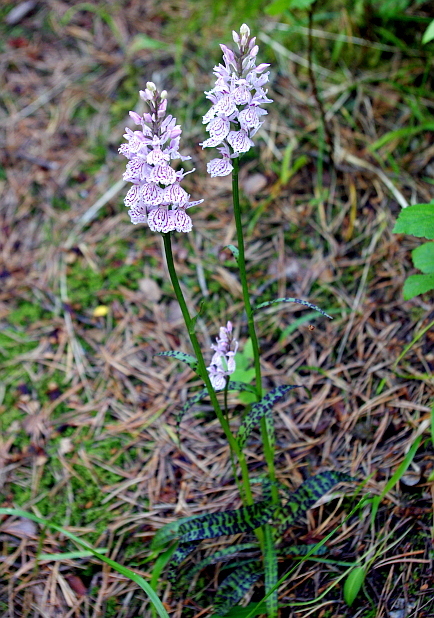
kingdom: Plantae
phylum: Tracheophyta
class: Liliopsida
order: Asparagales
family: Orchidaceae
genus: Dactylorhiza
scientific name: Dactylorhiza maculata
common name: Heath spotted-orchid
